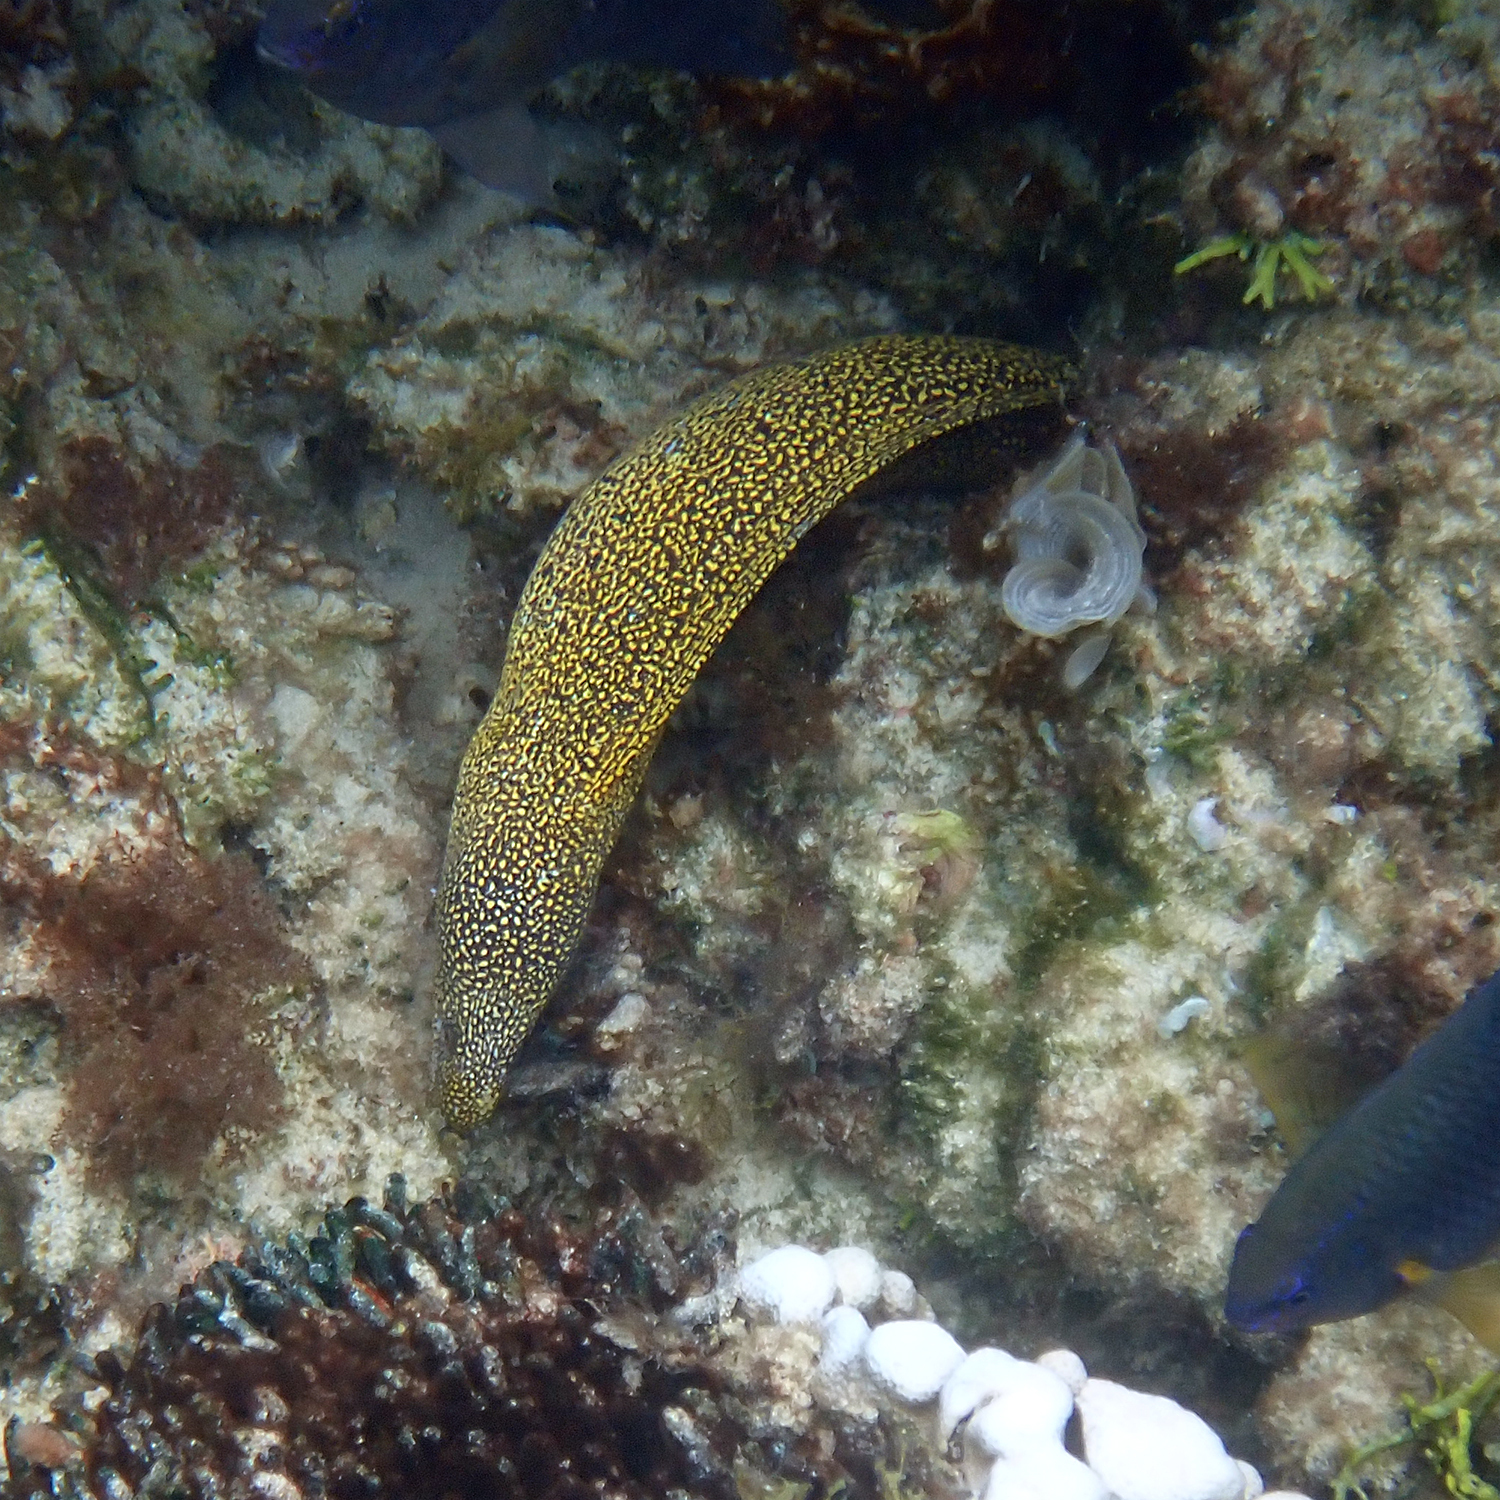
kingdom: Animalia
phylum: Chordata
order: Anguilliformes
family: Muraenidae
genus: Gymnothorax
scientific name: Gymnothorax eurostus
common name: Stout moray
